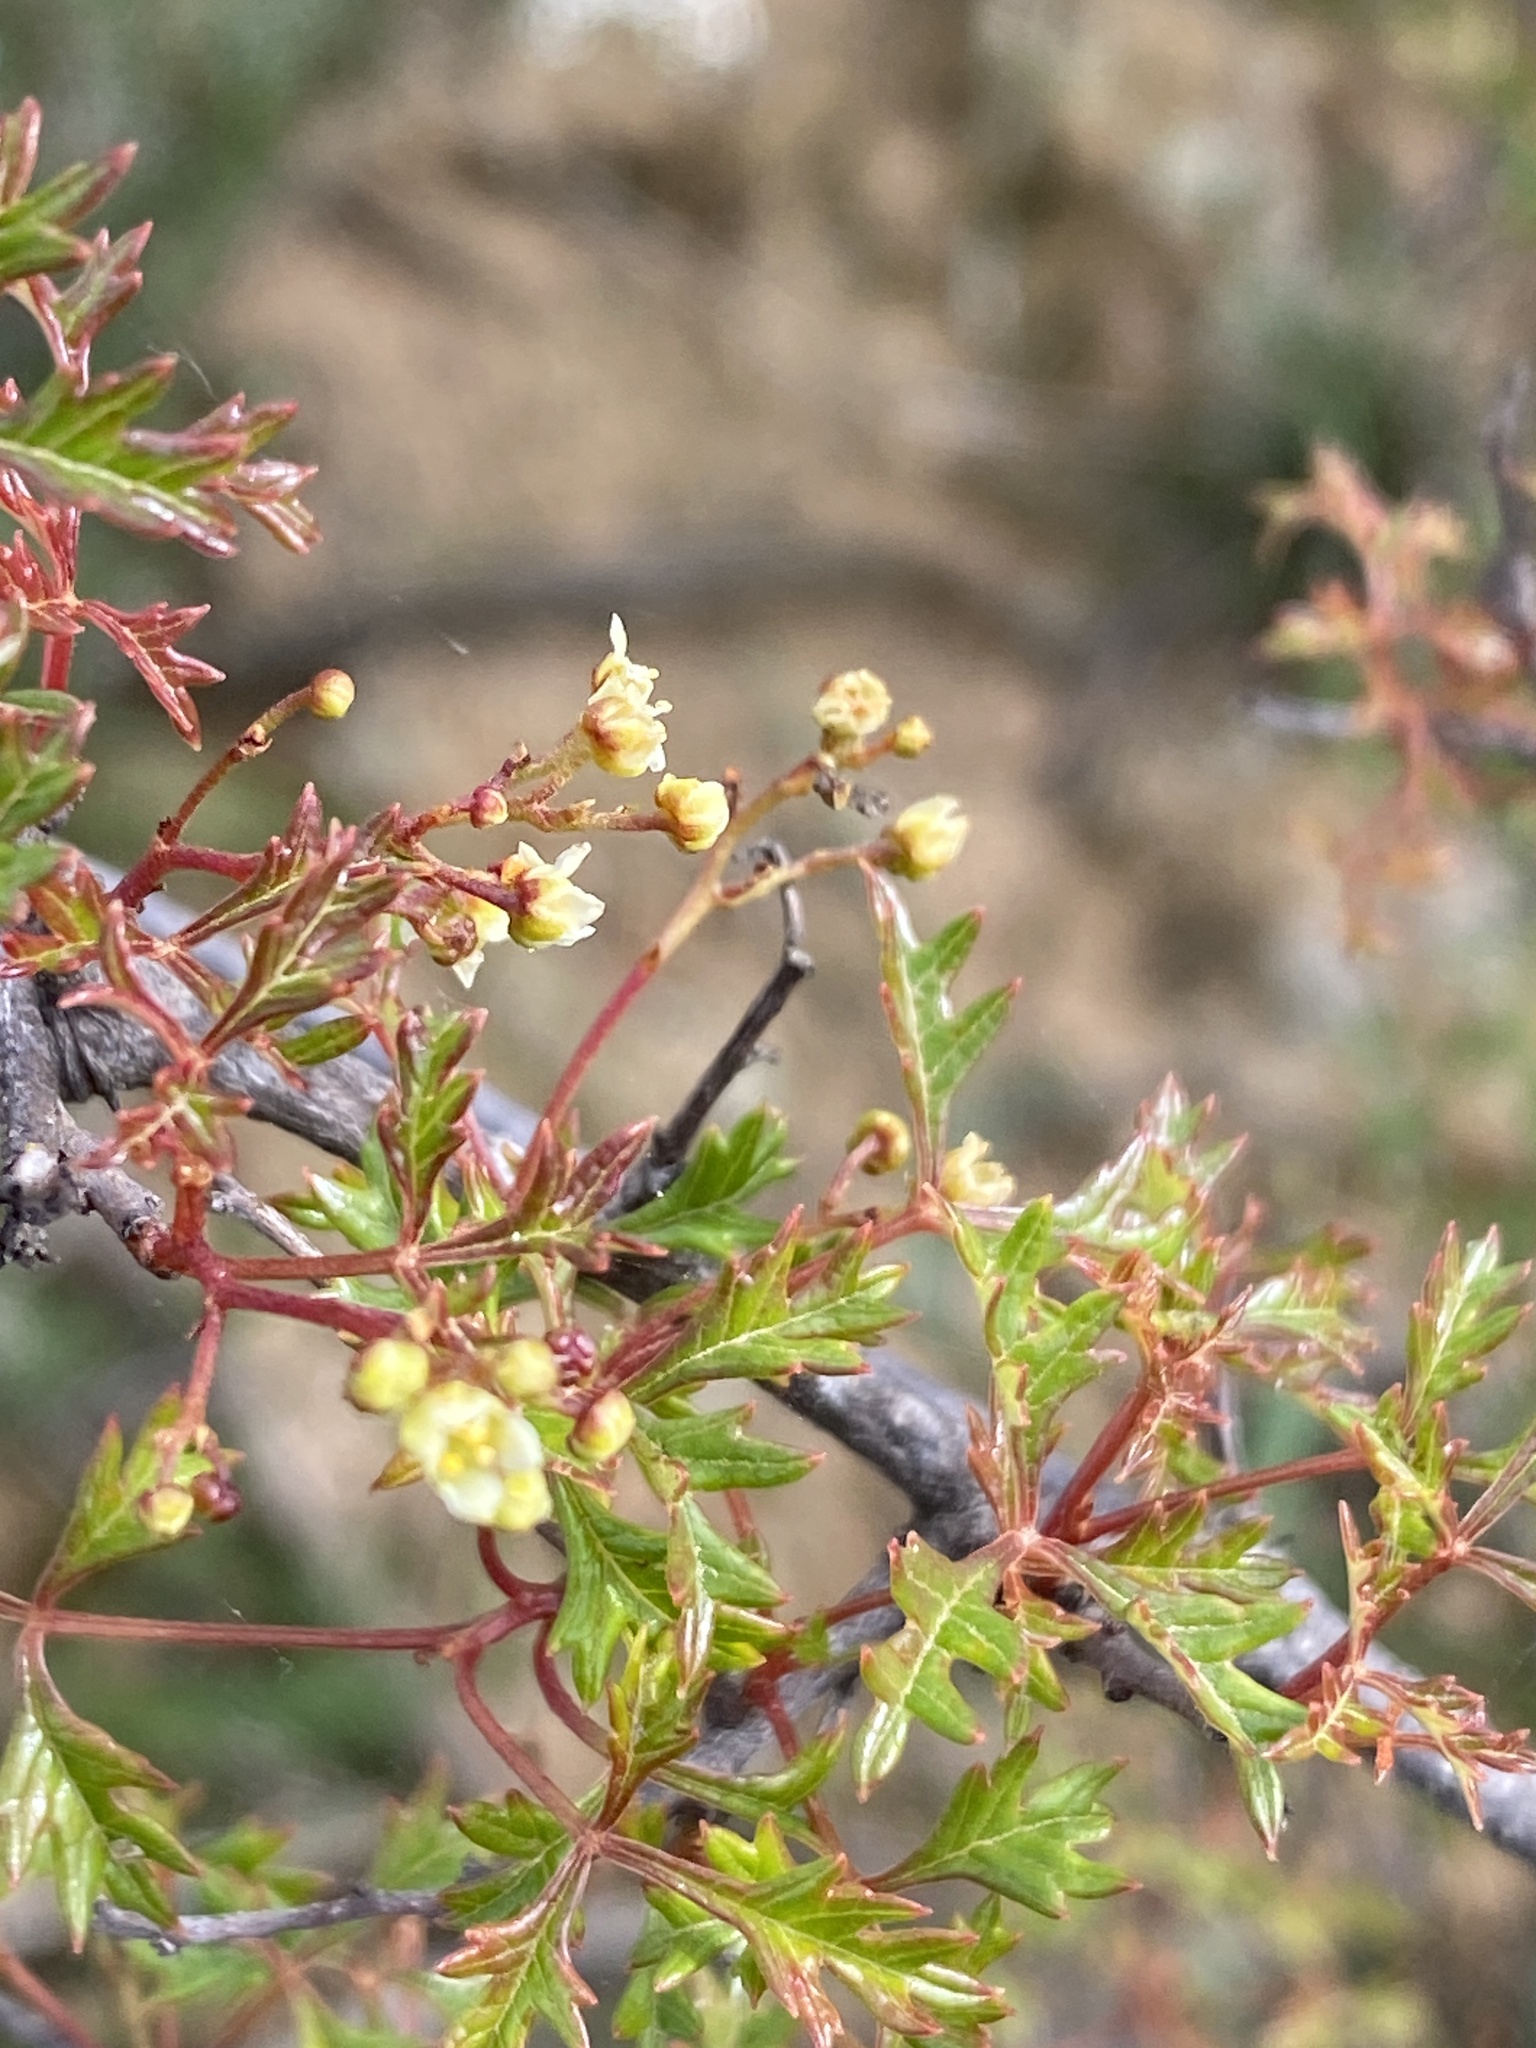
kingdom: Plantae
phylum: Tracheophyta
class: Magnoliopsida
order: Sapindales
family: Anacardiaceae
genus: Searsia
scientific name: Searsia dissecta
